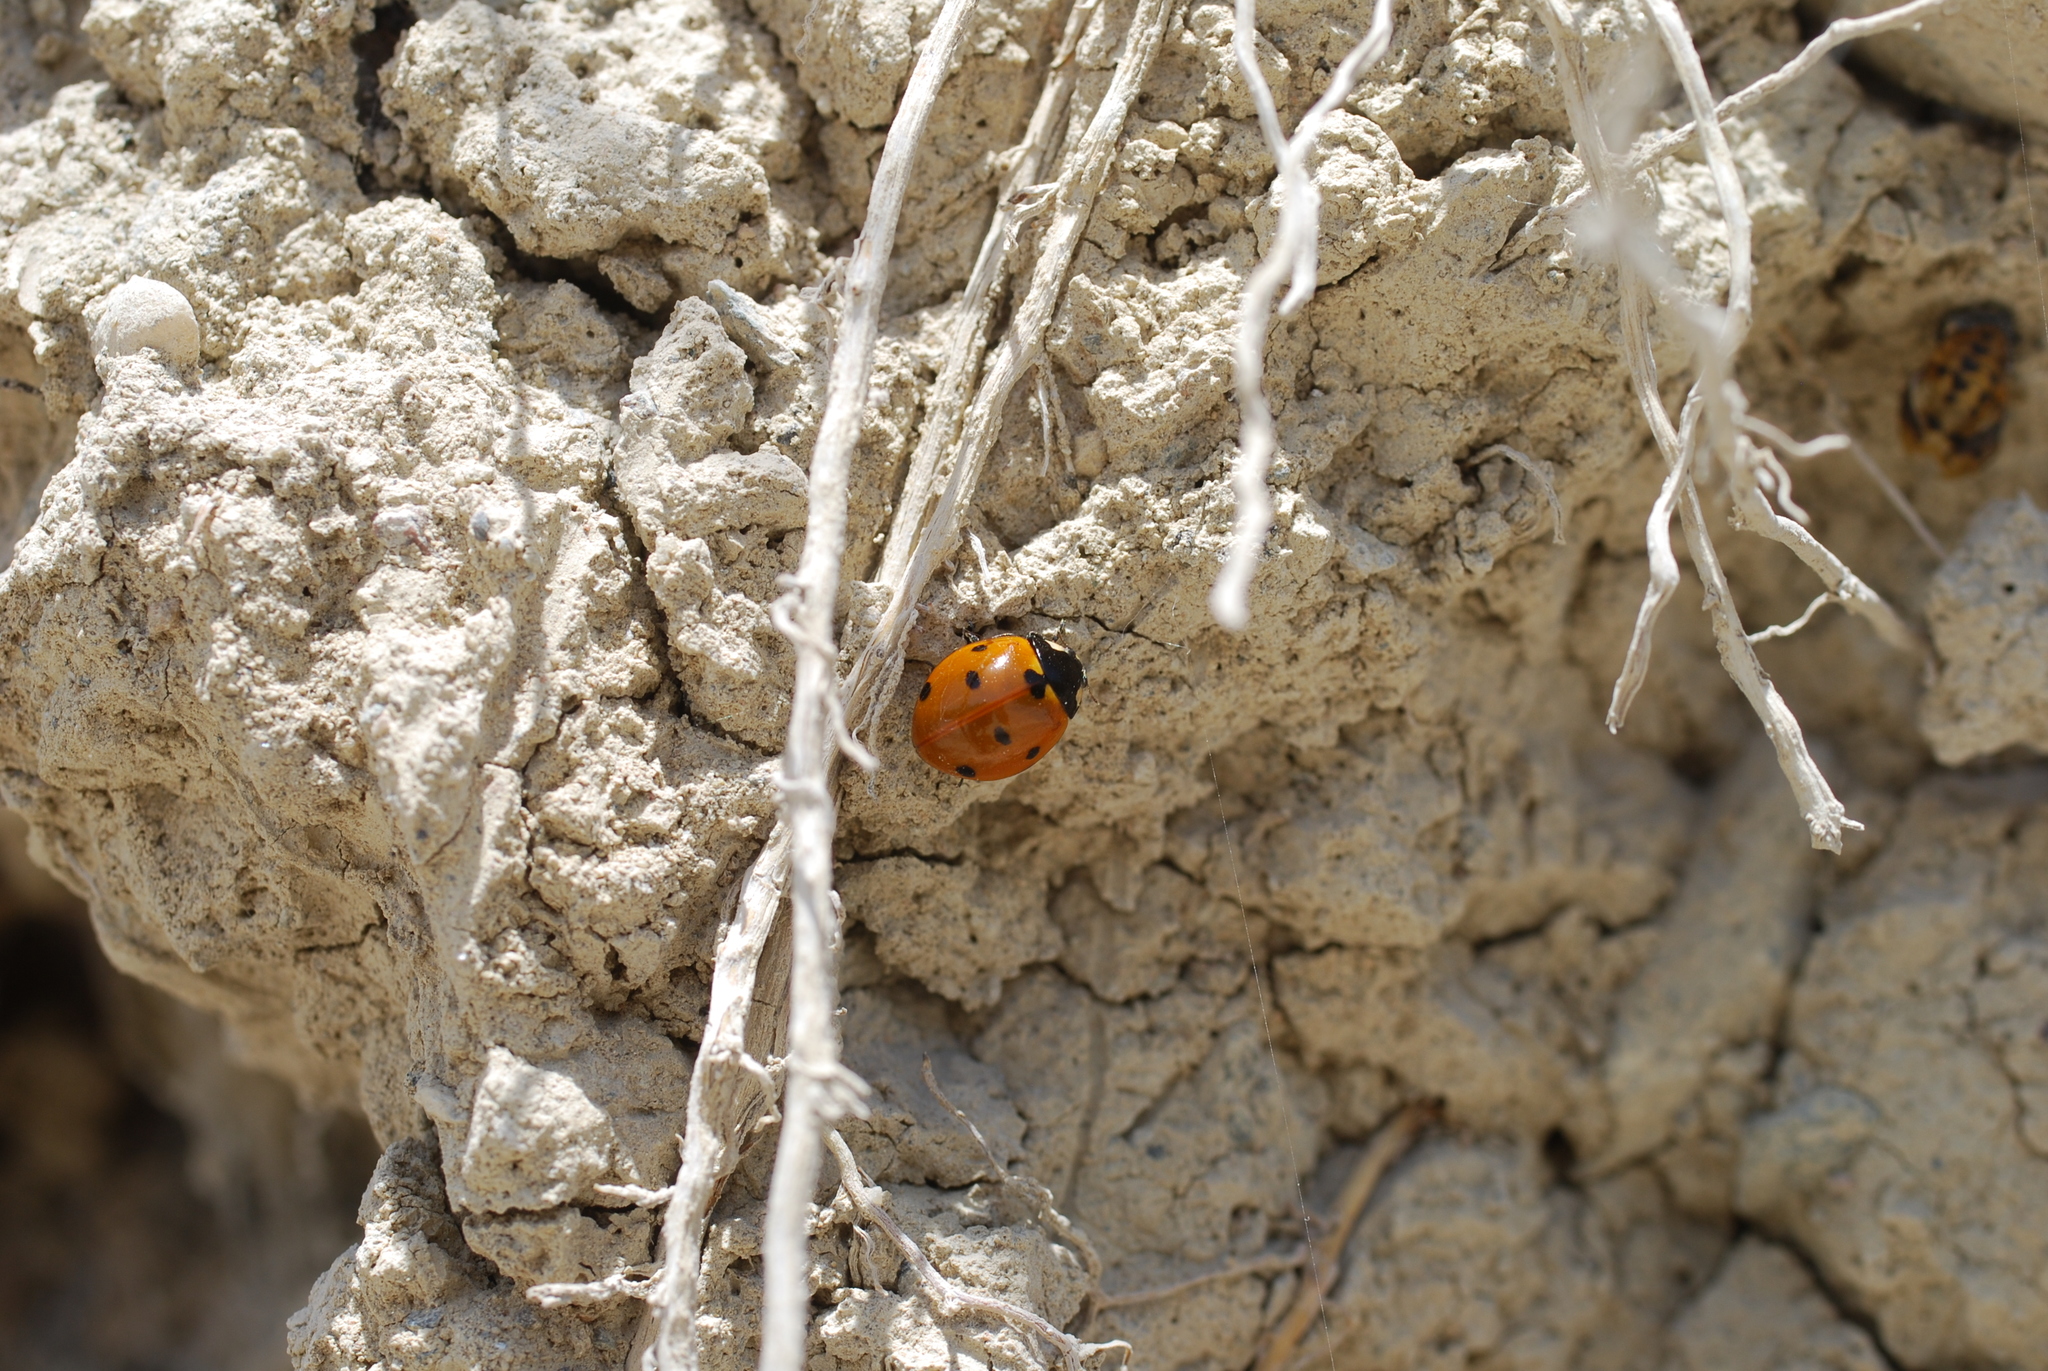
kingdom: Animalia
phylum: Arthropoda
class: Insecta
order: Coleoptera
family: Coccinellidae
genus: Coccinella
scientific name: Coccinella septempunctata
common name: Sevenspotted lady beetle
